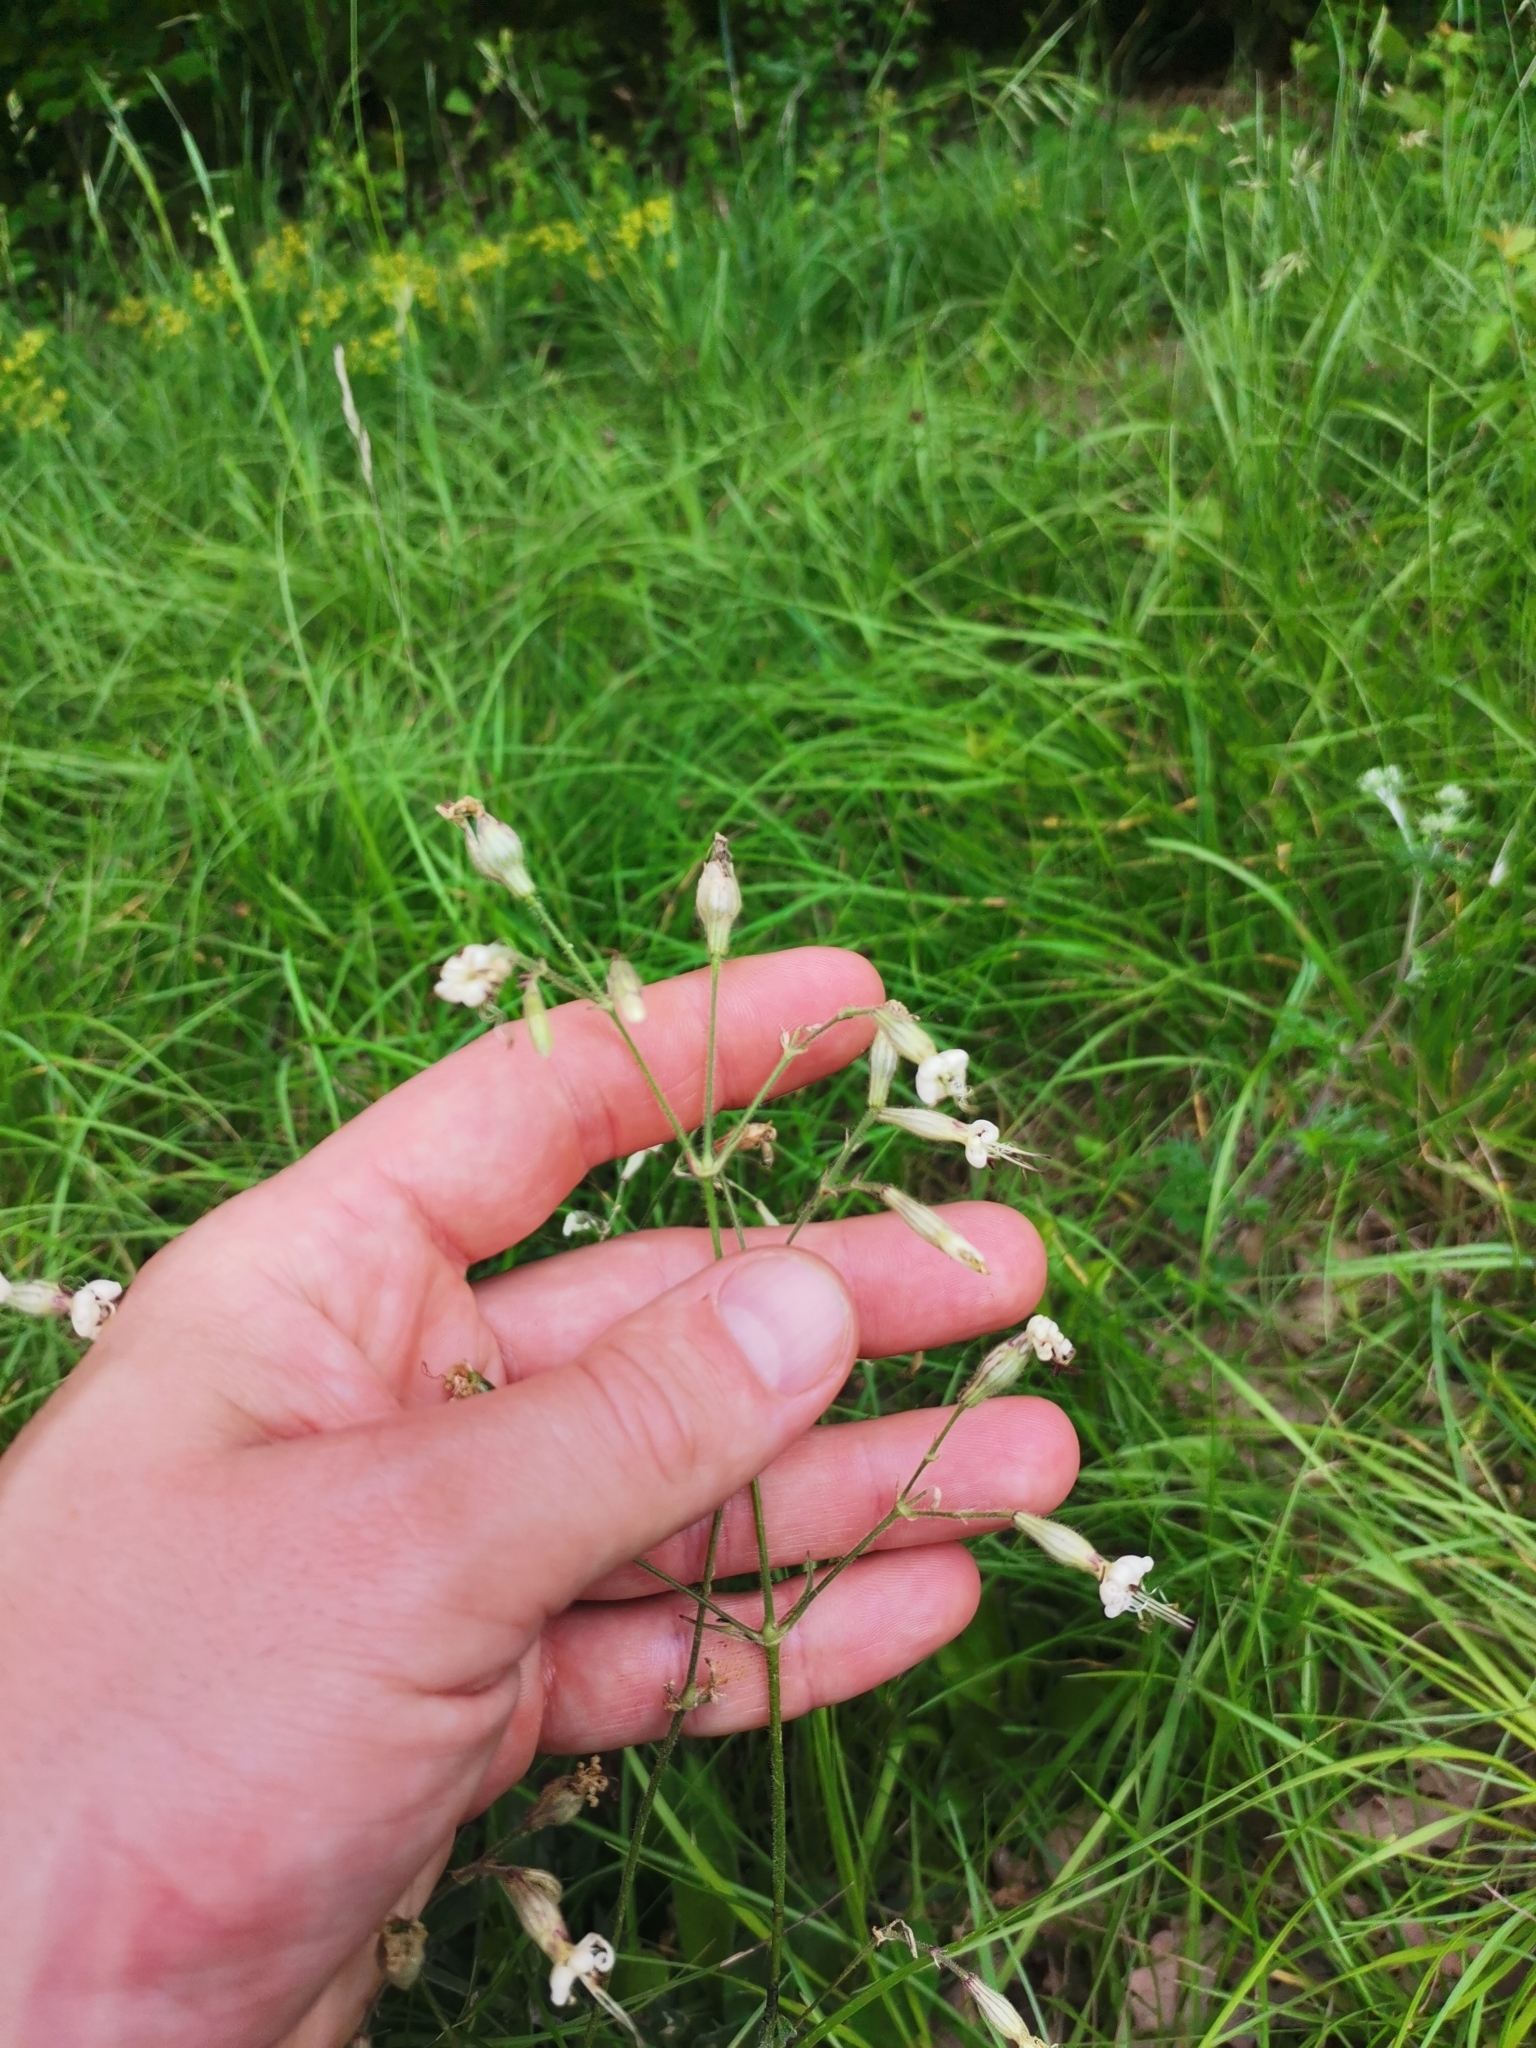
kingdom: Plantae
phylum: Tracheophyta
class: Magnoliopsida
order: Caryophyllales
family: Caryophyllaceae
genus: Silene
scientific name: Silene nutans
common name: Nottingham catchfly
